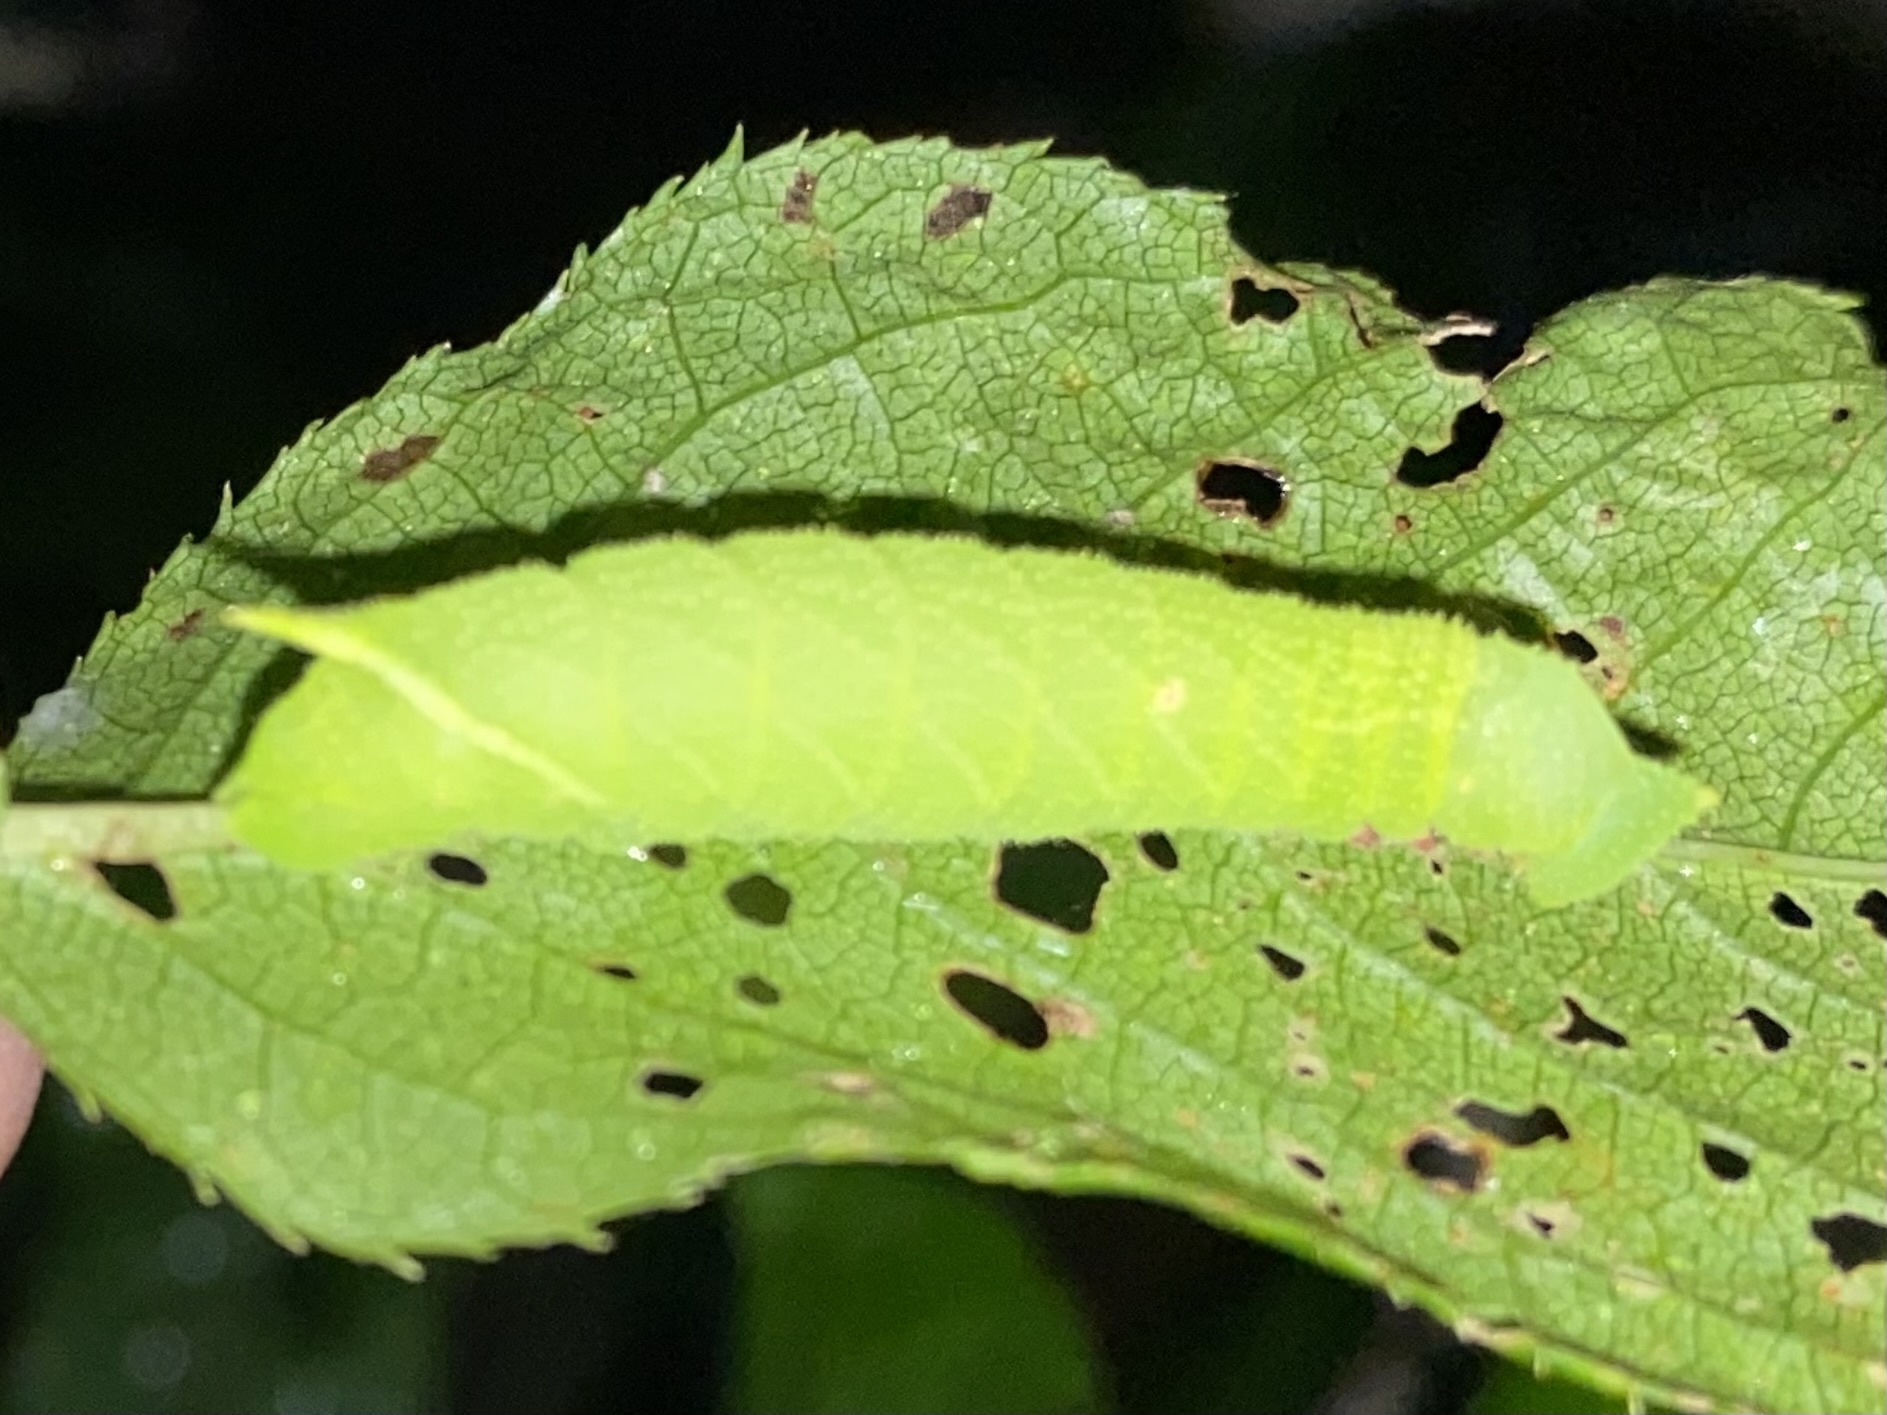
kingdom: Animalia
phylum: Arthropoda
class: Insecta
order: Lepidoptera
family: Sphingidae
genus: Paonias
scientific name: Paonias excaecata
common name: Blind-eyed sphinx
